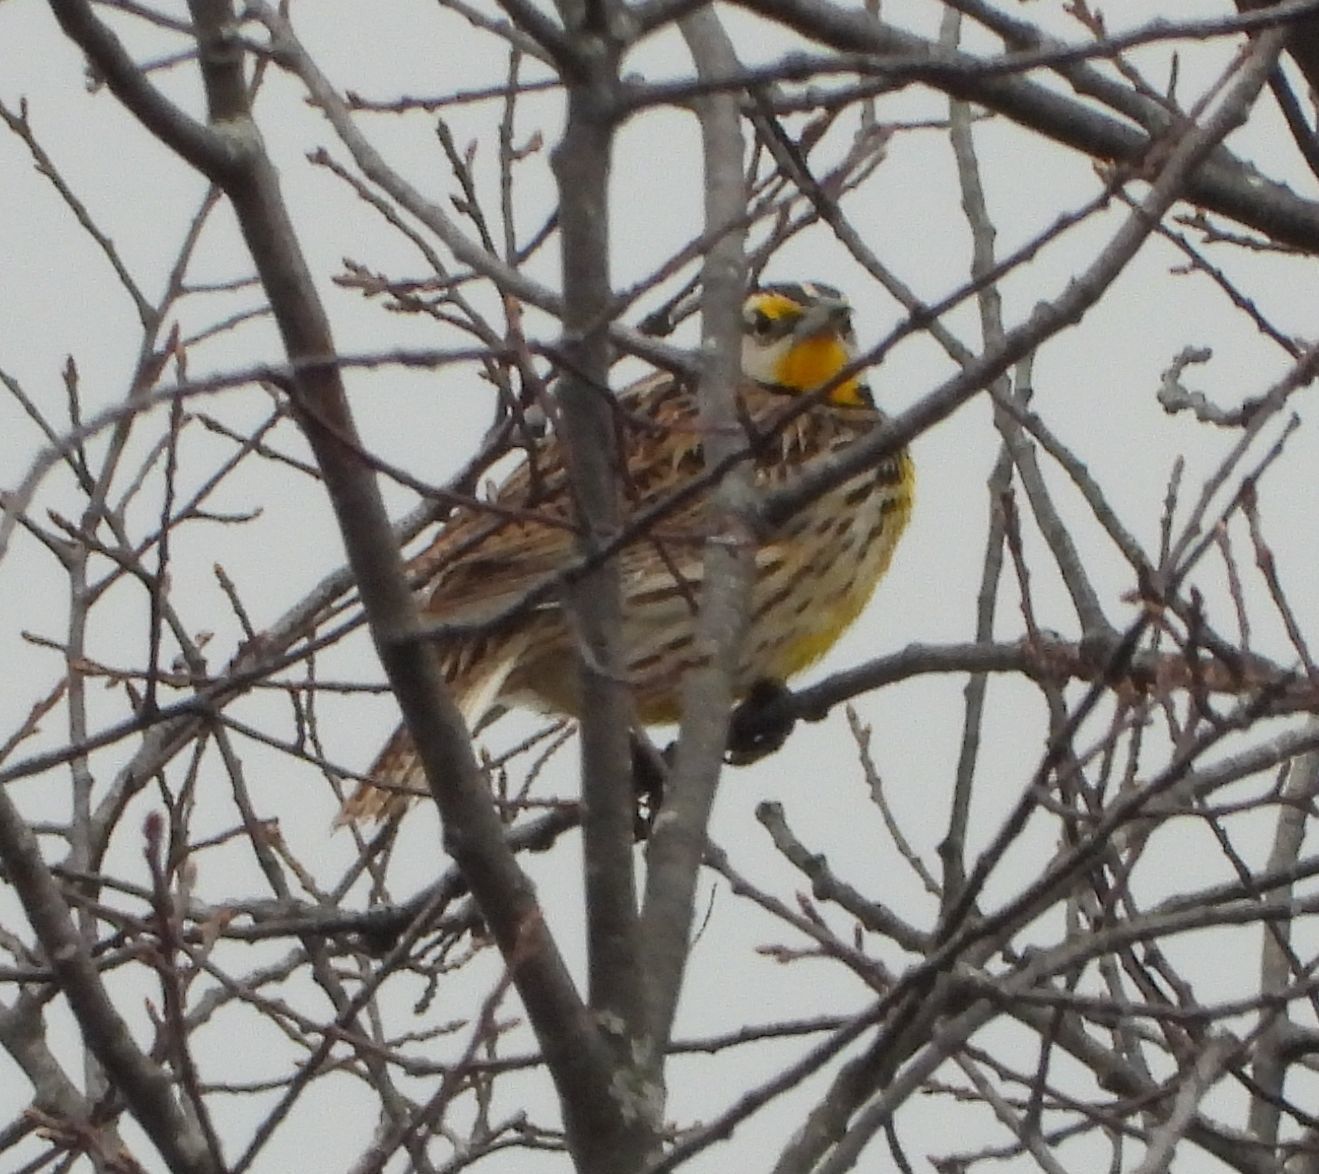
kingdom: Animalia
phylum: Chordata
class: Aves
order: Passeriformes
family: Icteridae
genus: Sturnella
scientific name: Sturnella magna
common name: Eastern meadowlark
